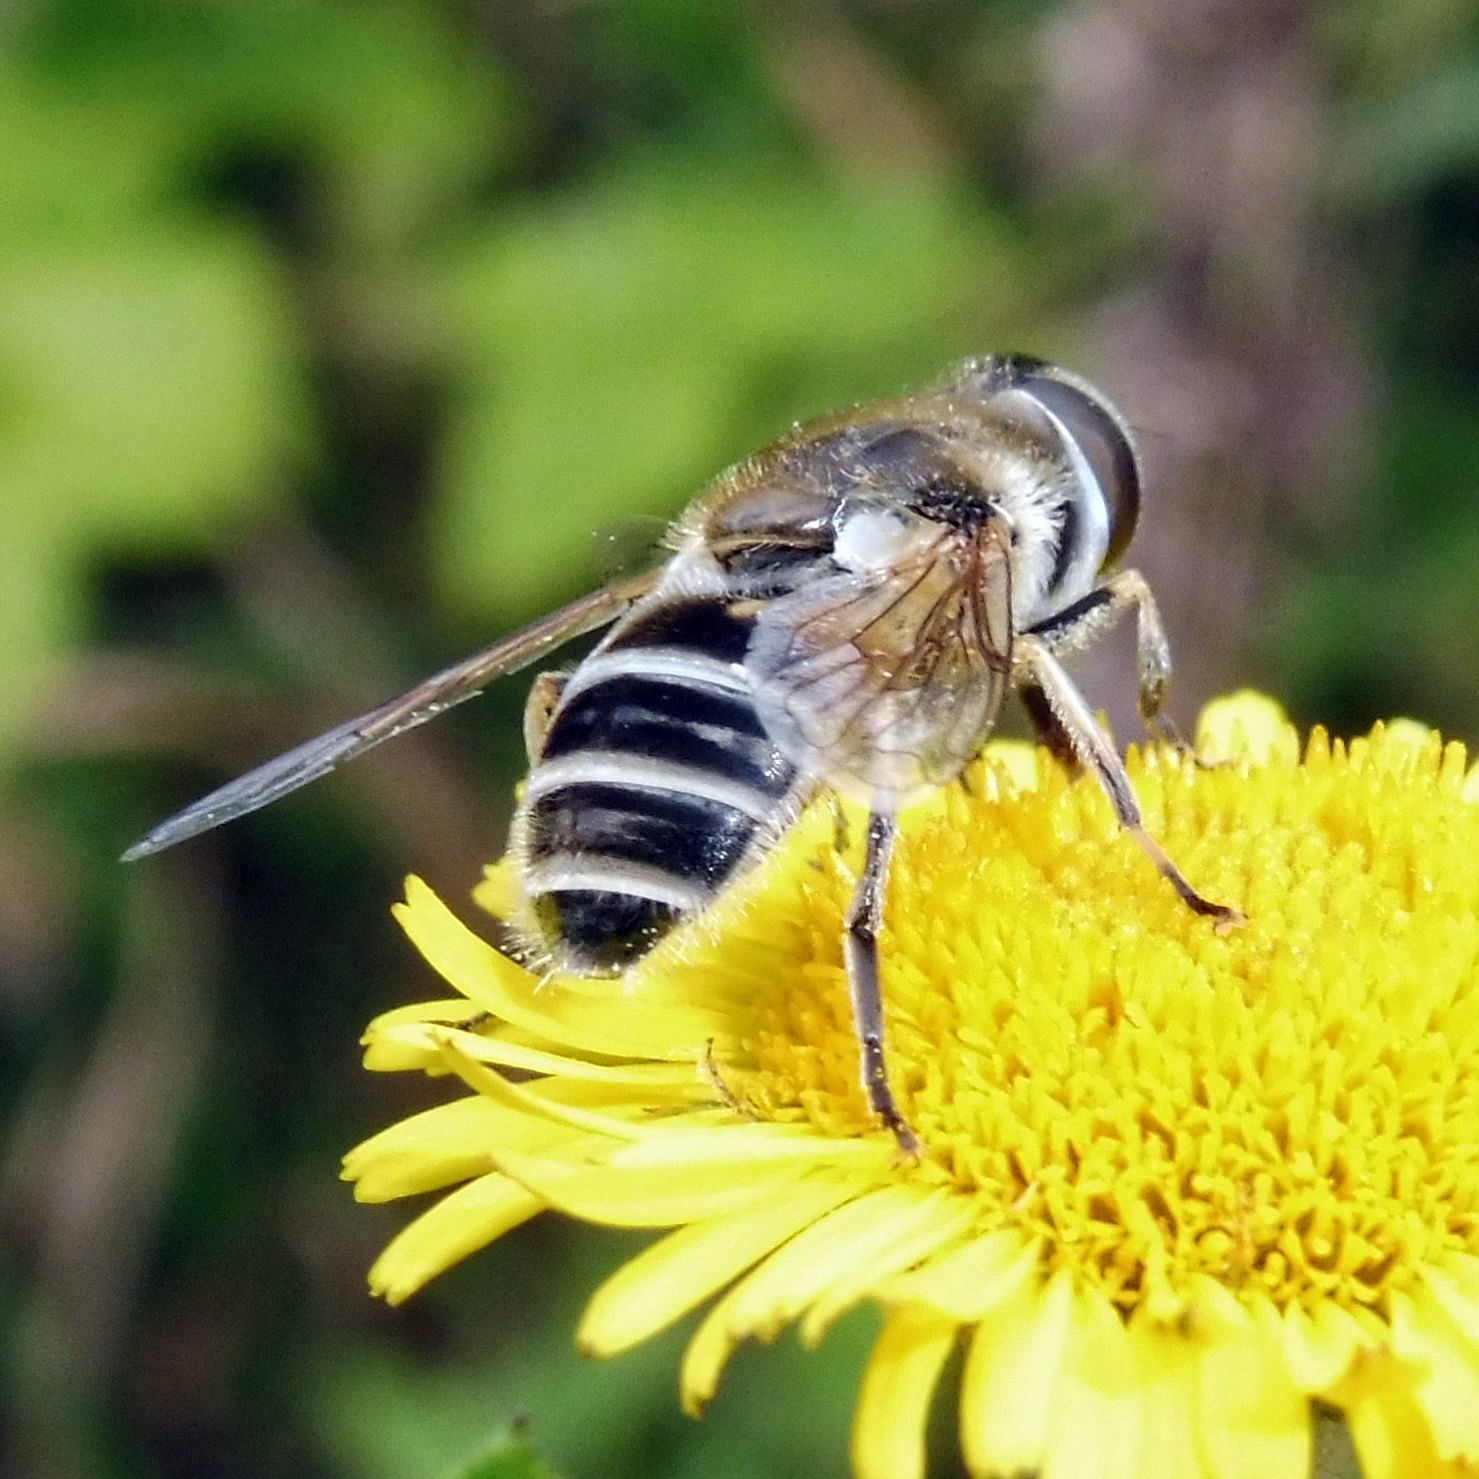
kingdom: Animalia
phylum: Arthropoda
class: Insecta
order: Diptera
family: Syrphidae
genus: Eristalis
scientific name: Eristalis arbustorum
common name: Hover fly
